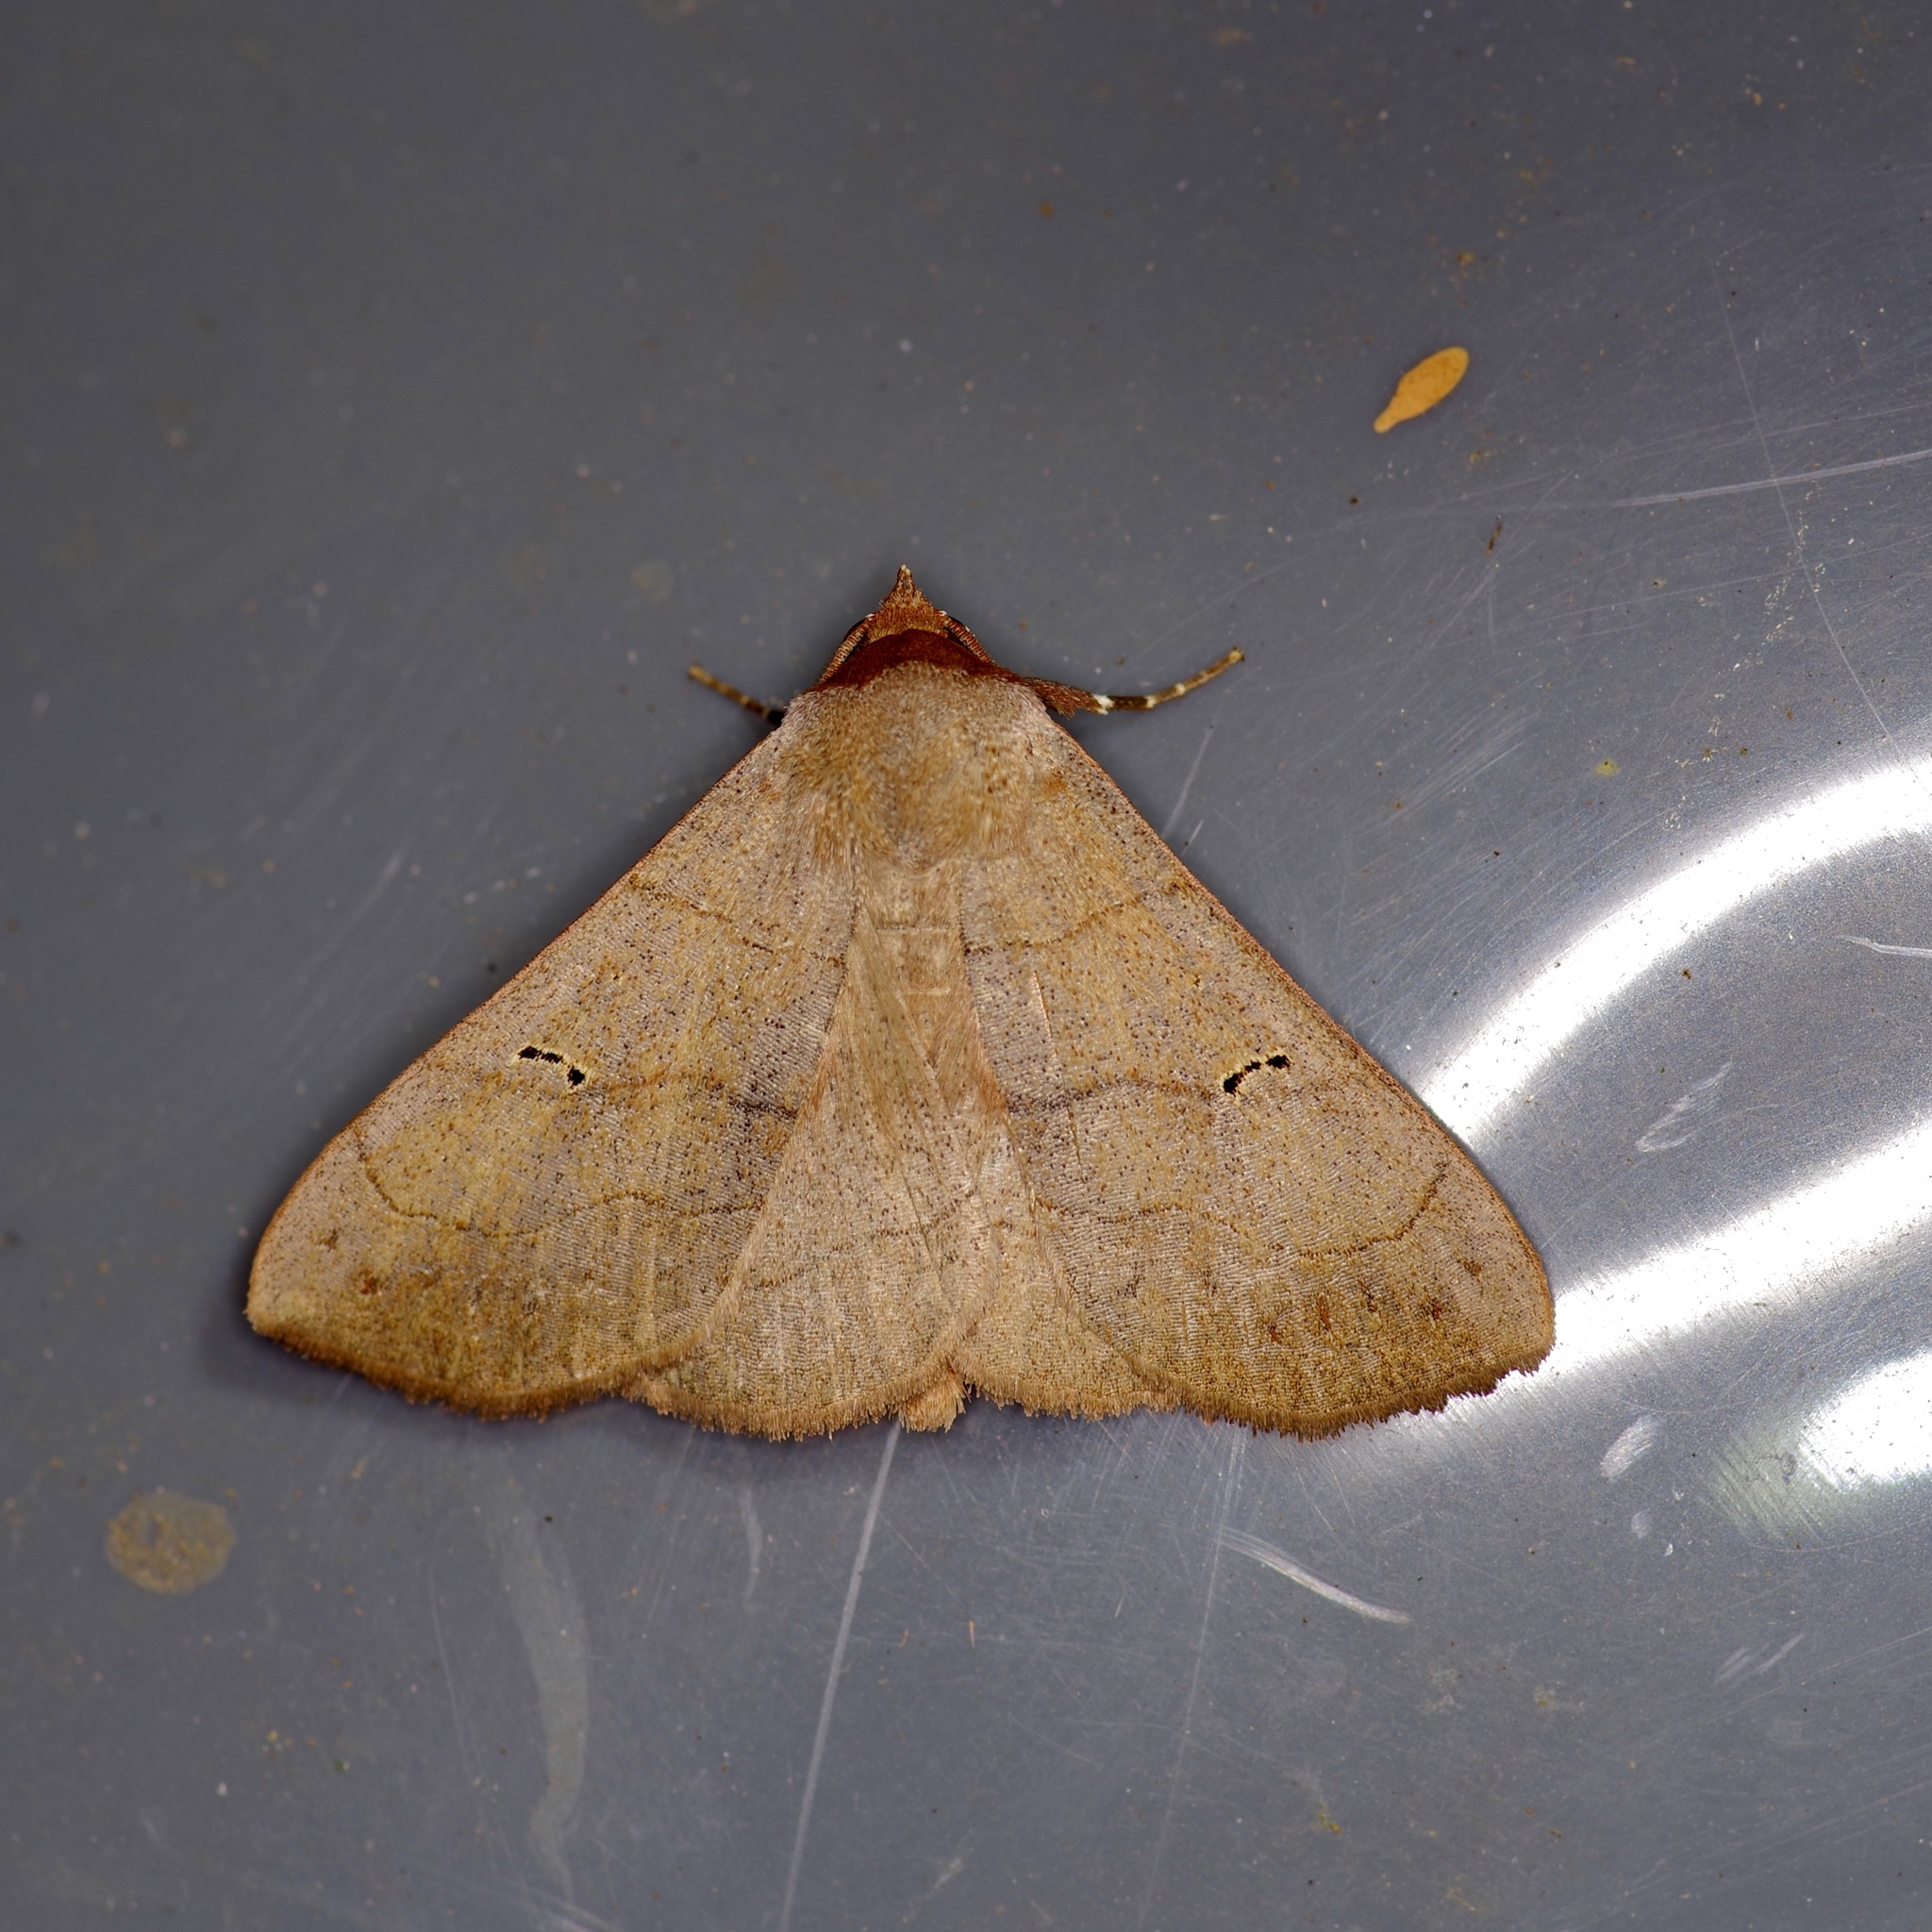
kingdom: Animalia
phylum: Arthropoda
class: Insecta
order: Lepidoptera
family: Erebidae
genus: Panopoda
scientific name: Panopoda carneicosta
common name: Brown panopoda moth
